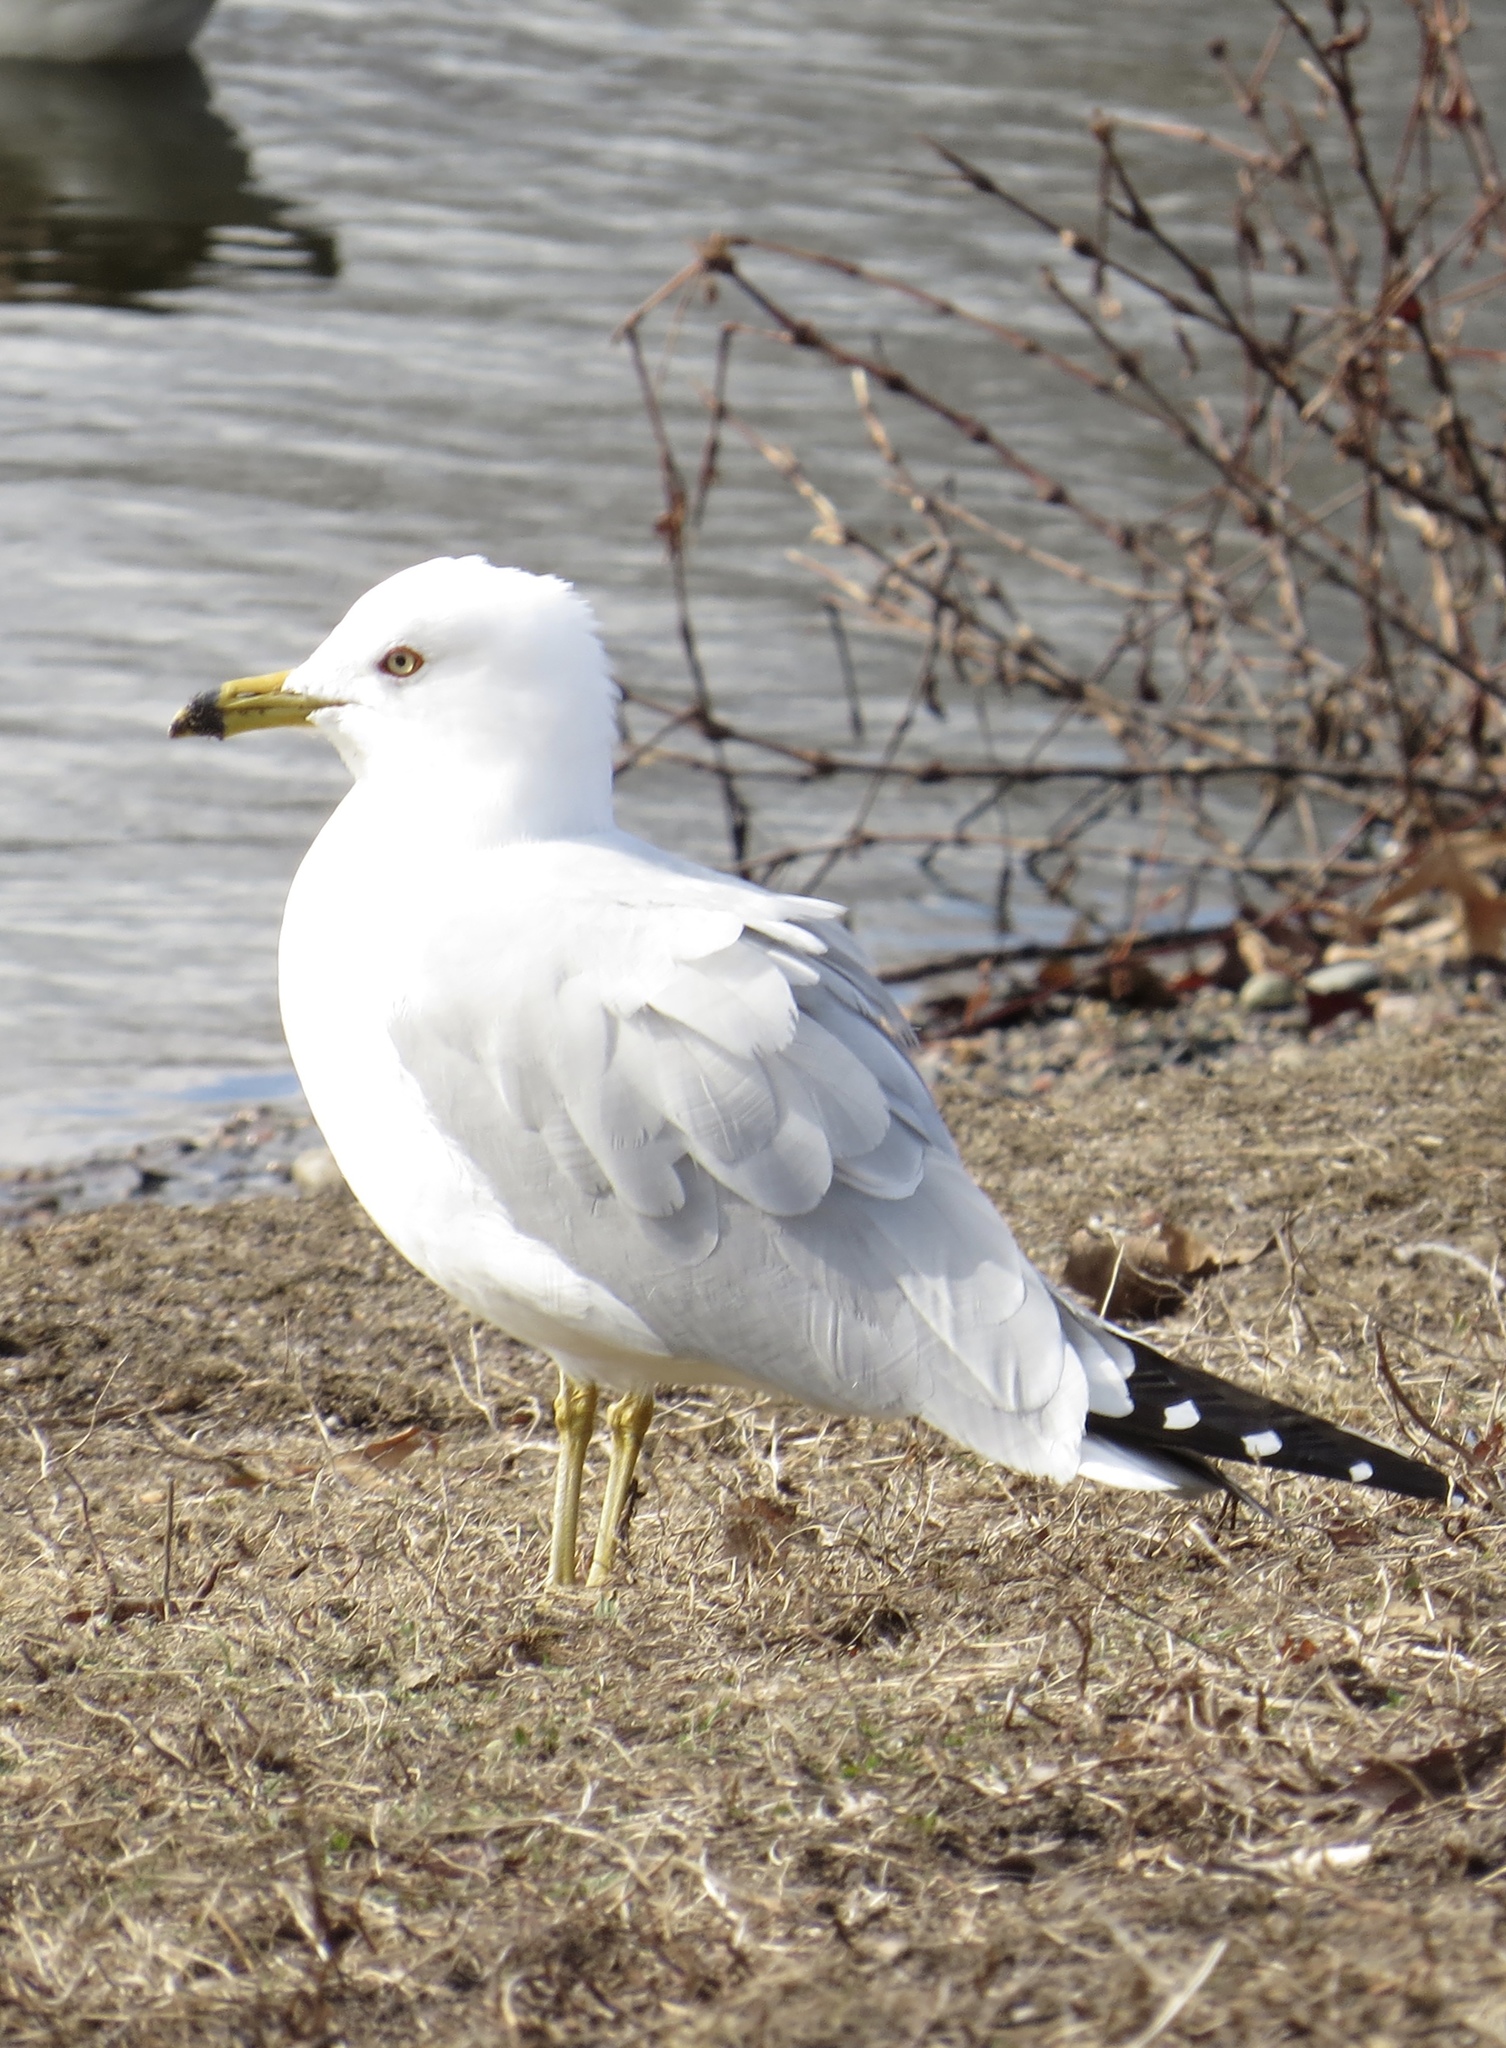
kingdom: Animalia
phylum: Chordata
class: Aves
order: Charadriiformes
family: Laridae
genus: Larus
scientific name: Larus delawarensis
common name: Ring-billed gull
